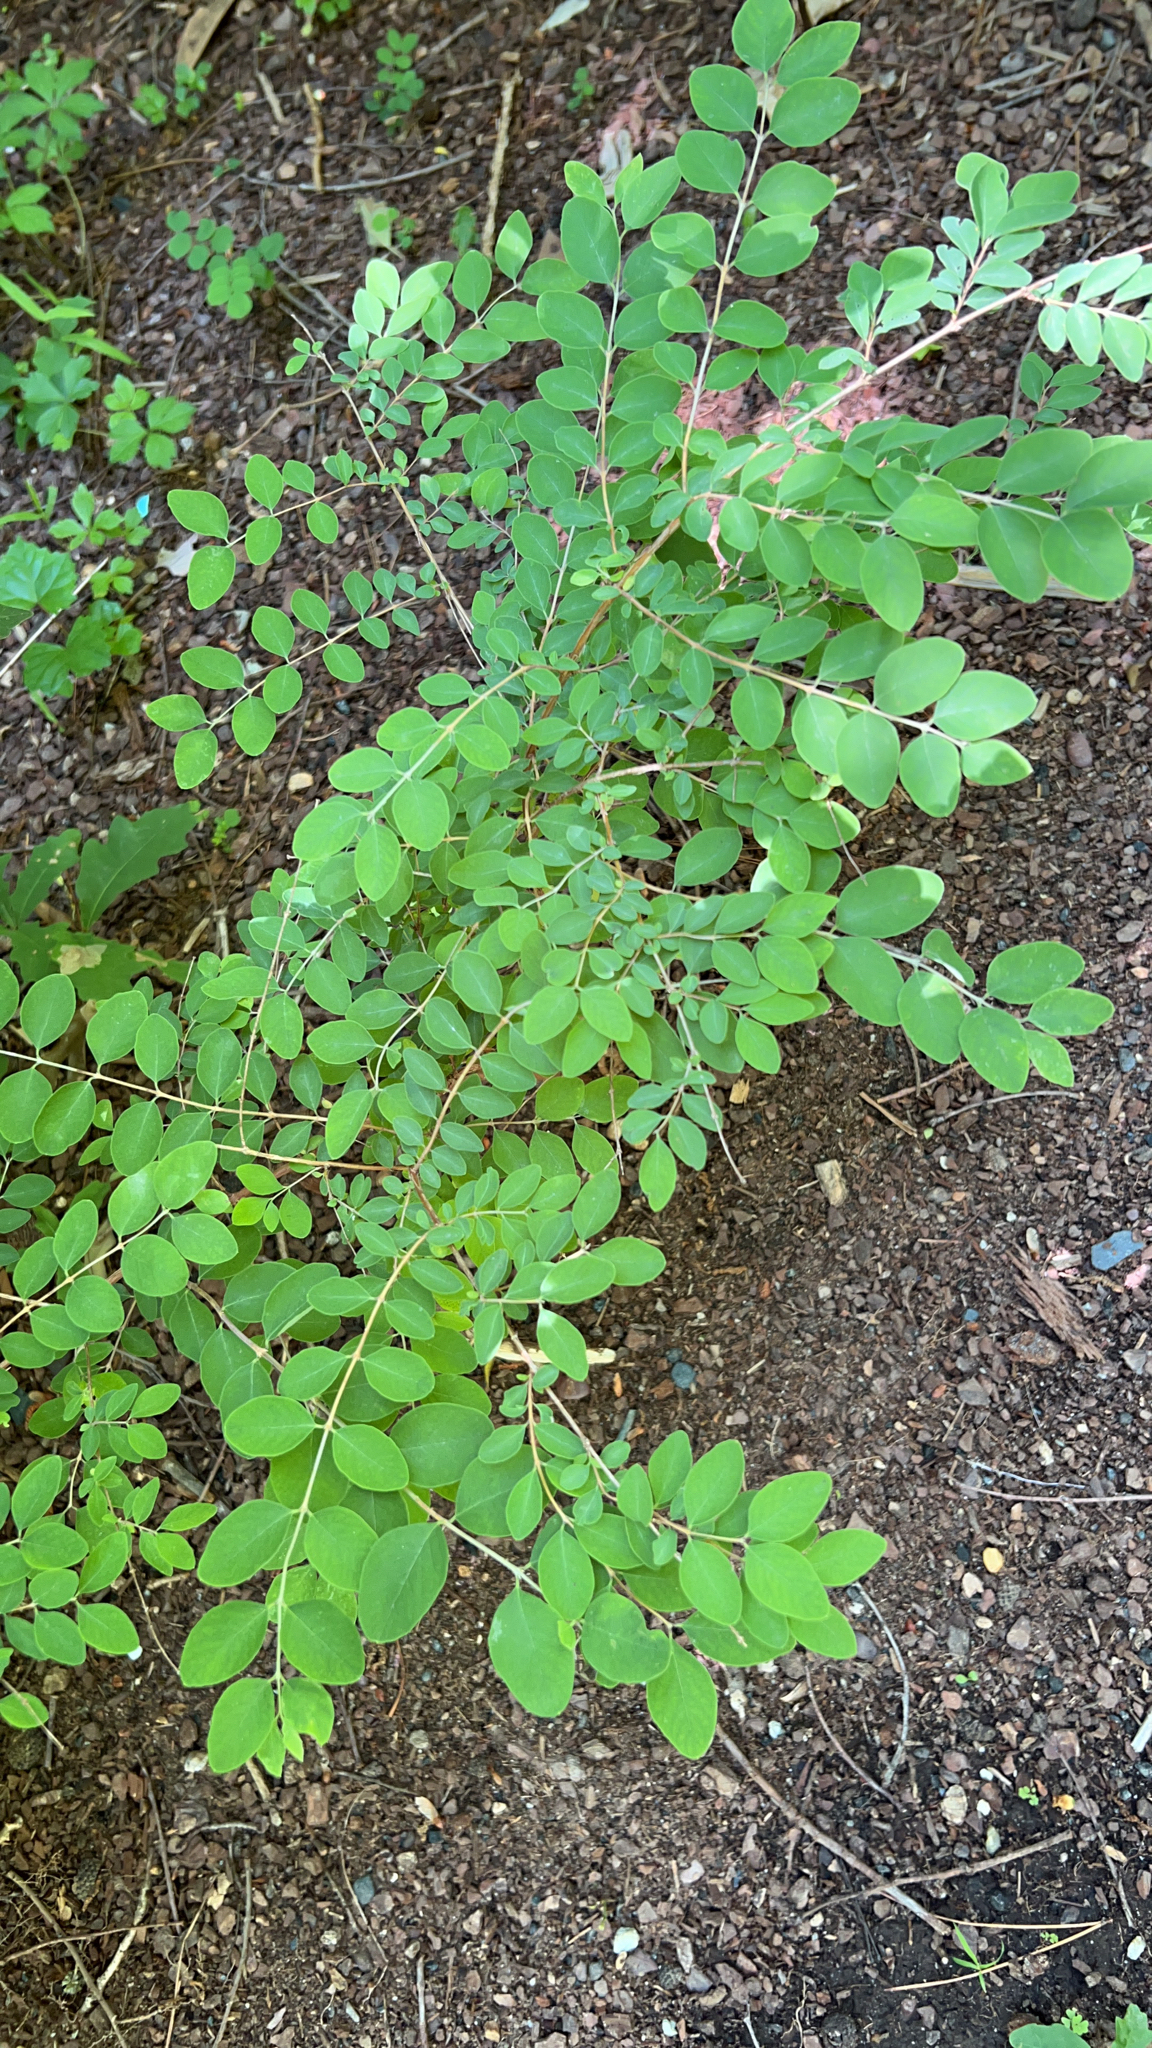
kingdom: Plantae
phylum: Tracheophyta
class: Magnoliopsida
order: Dipsacales
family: Caprifoliaceae
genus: Symphoricarpos
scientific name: Symphoricarpos orbiculatus
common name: Coralberry
